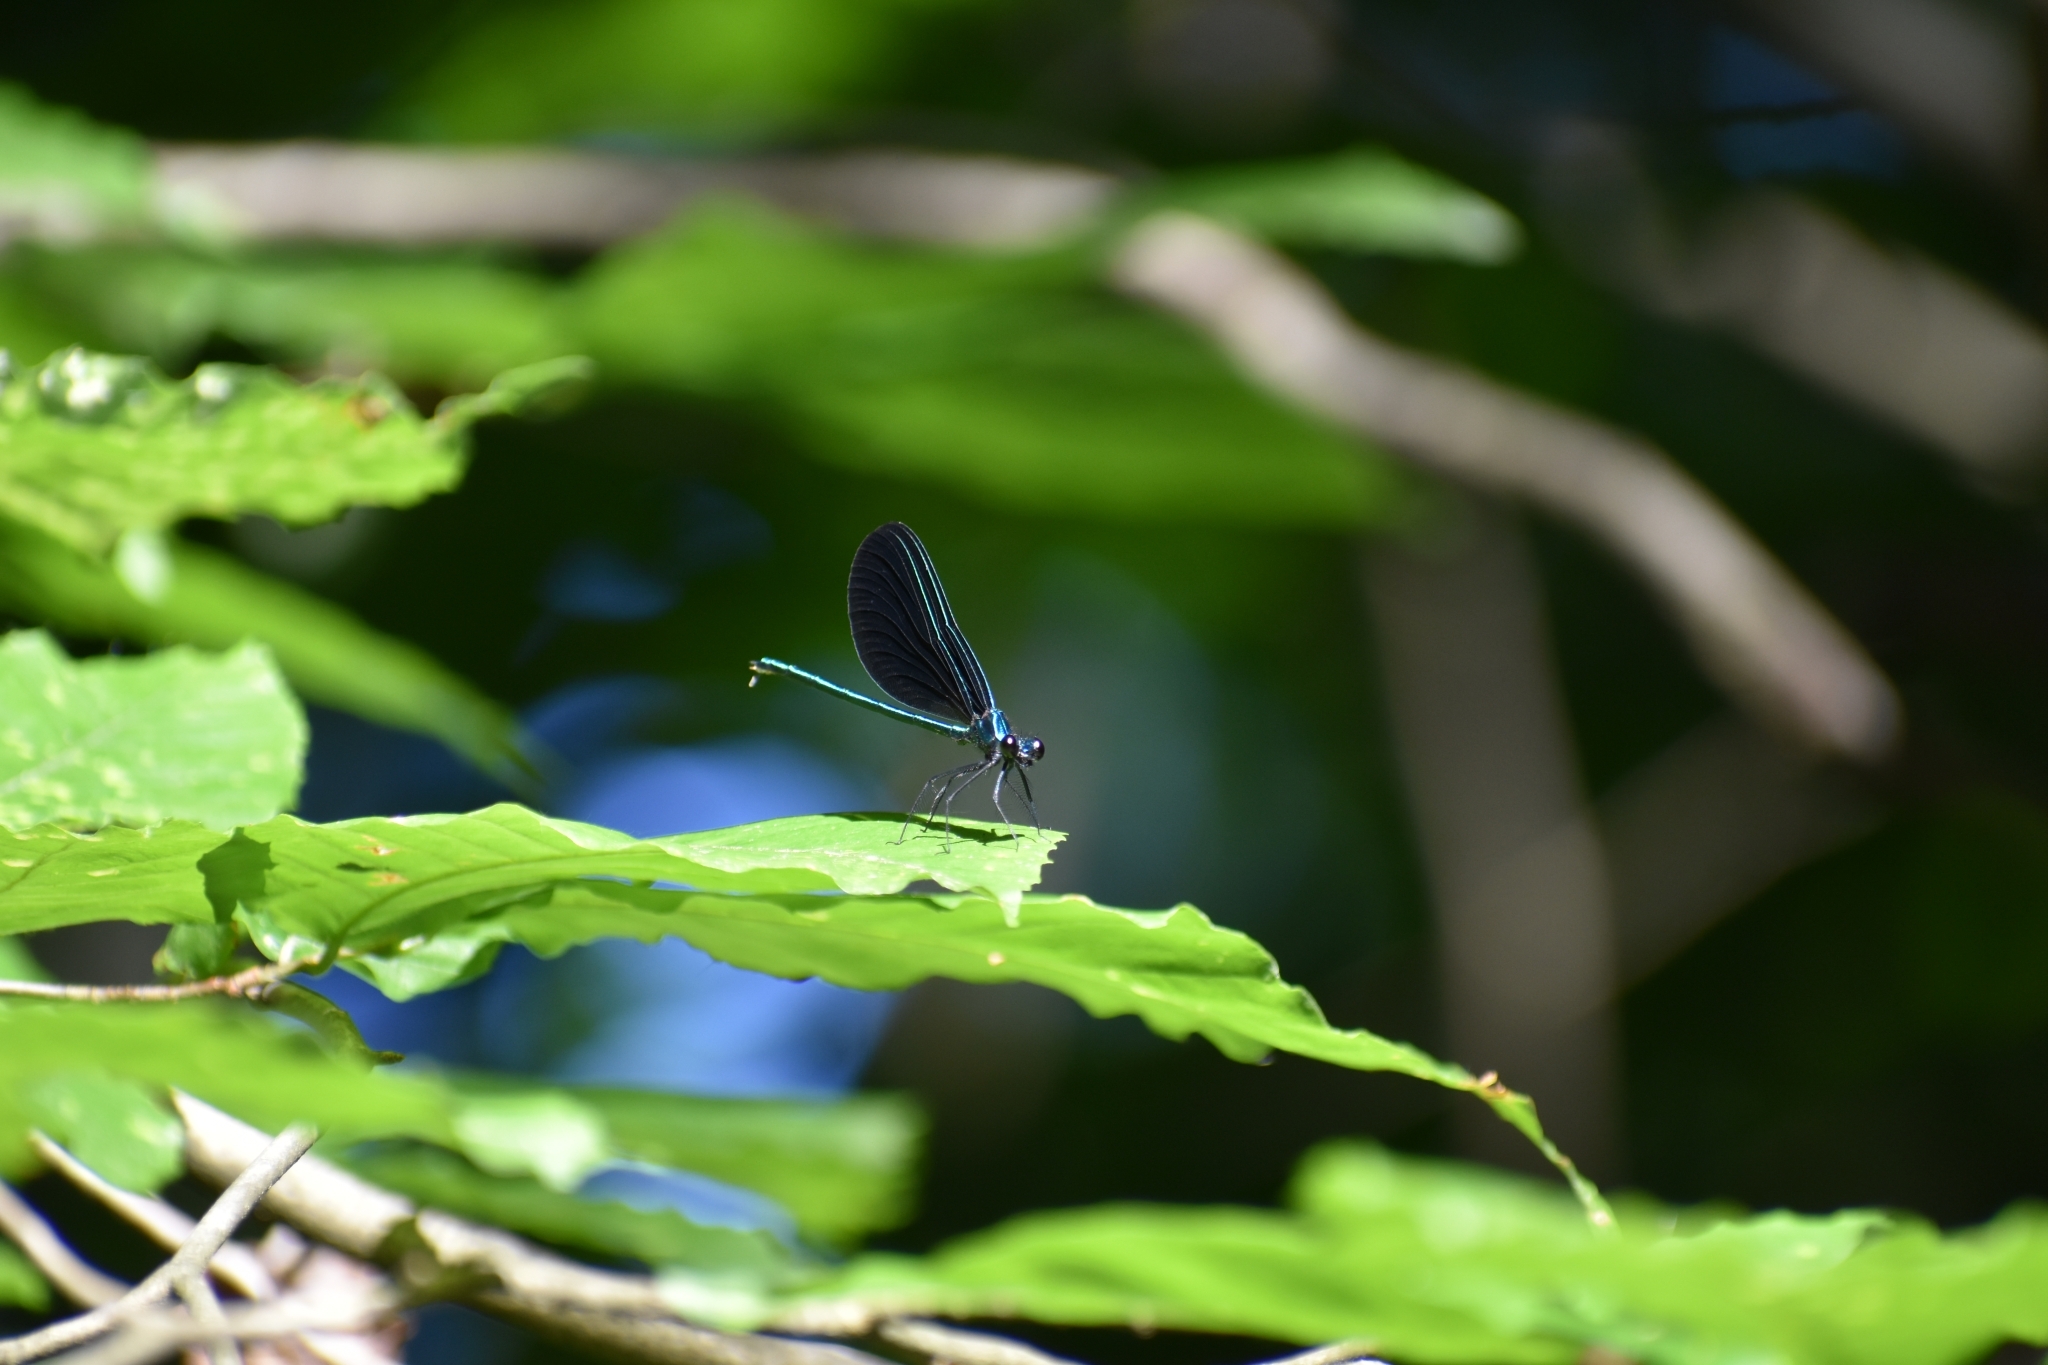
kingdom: Animalia
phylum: Arthropoda
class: Insecta
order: Odonata
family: Calopterygidae
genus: Calopteryx
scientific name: Calopteryx maculata
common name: Ebony jewelwing
